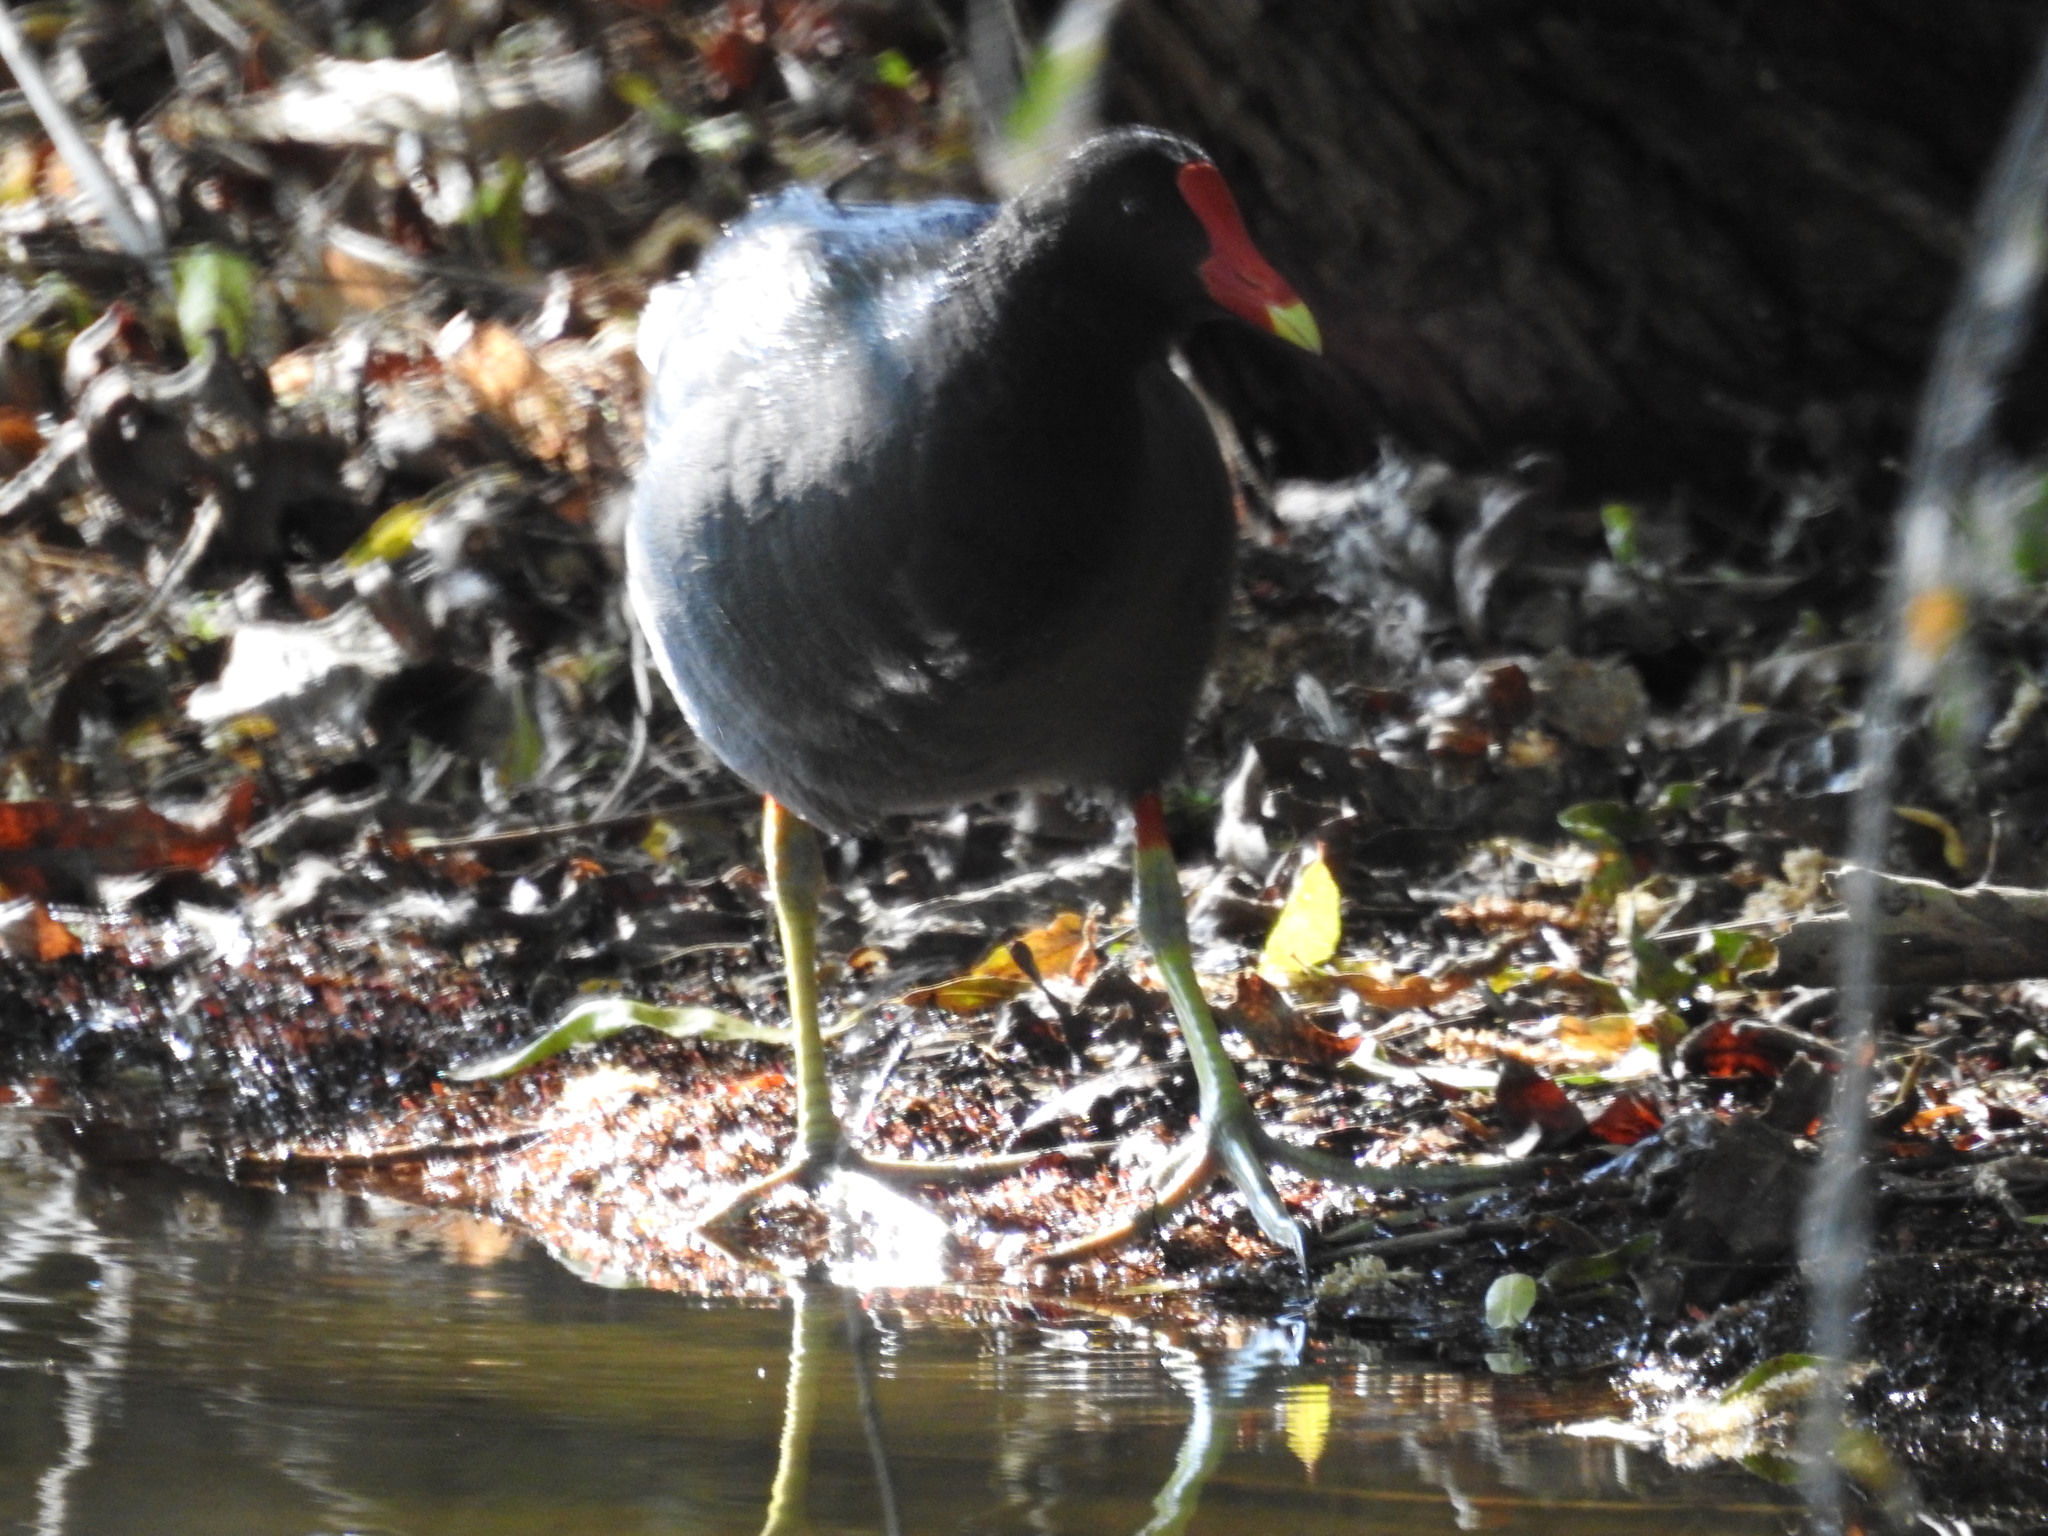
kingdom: Animalia
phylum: Chordata
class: Aves
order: Gruiformes
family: Rallidae
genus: Gallinula
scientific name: Gallinula chloropus
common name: Common moorhen
